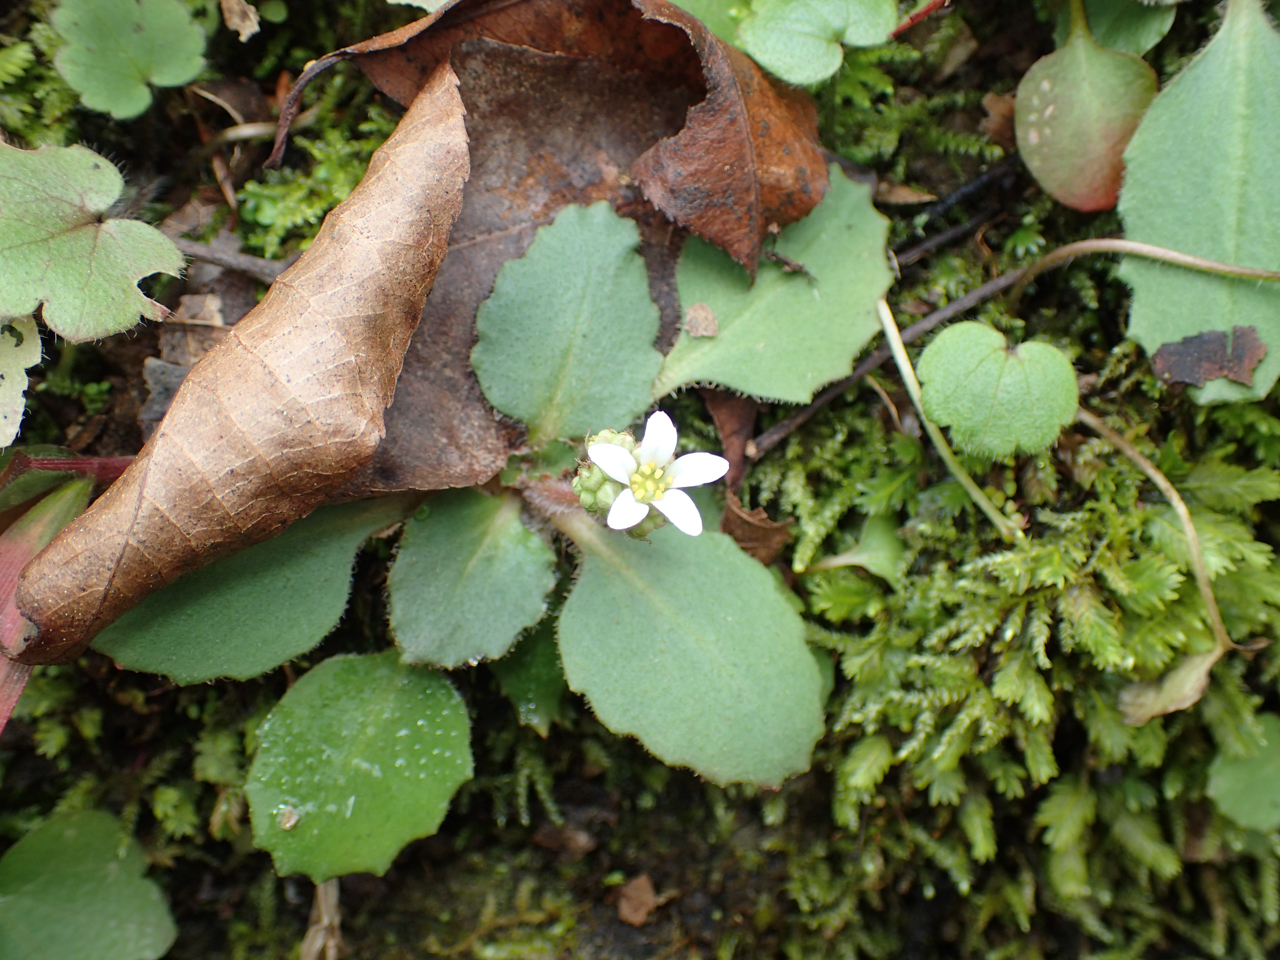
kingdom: Plantae
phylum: Tracheophyta
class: Magnoliopsida
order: Saxifragales
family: Saxifragaceae
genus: Micranthes
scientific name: Micranthes virginiensis
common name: Early saxifrage
